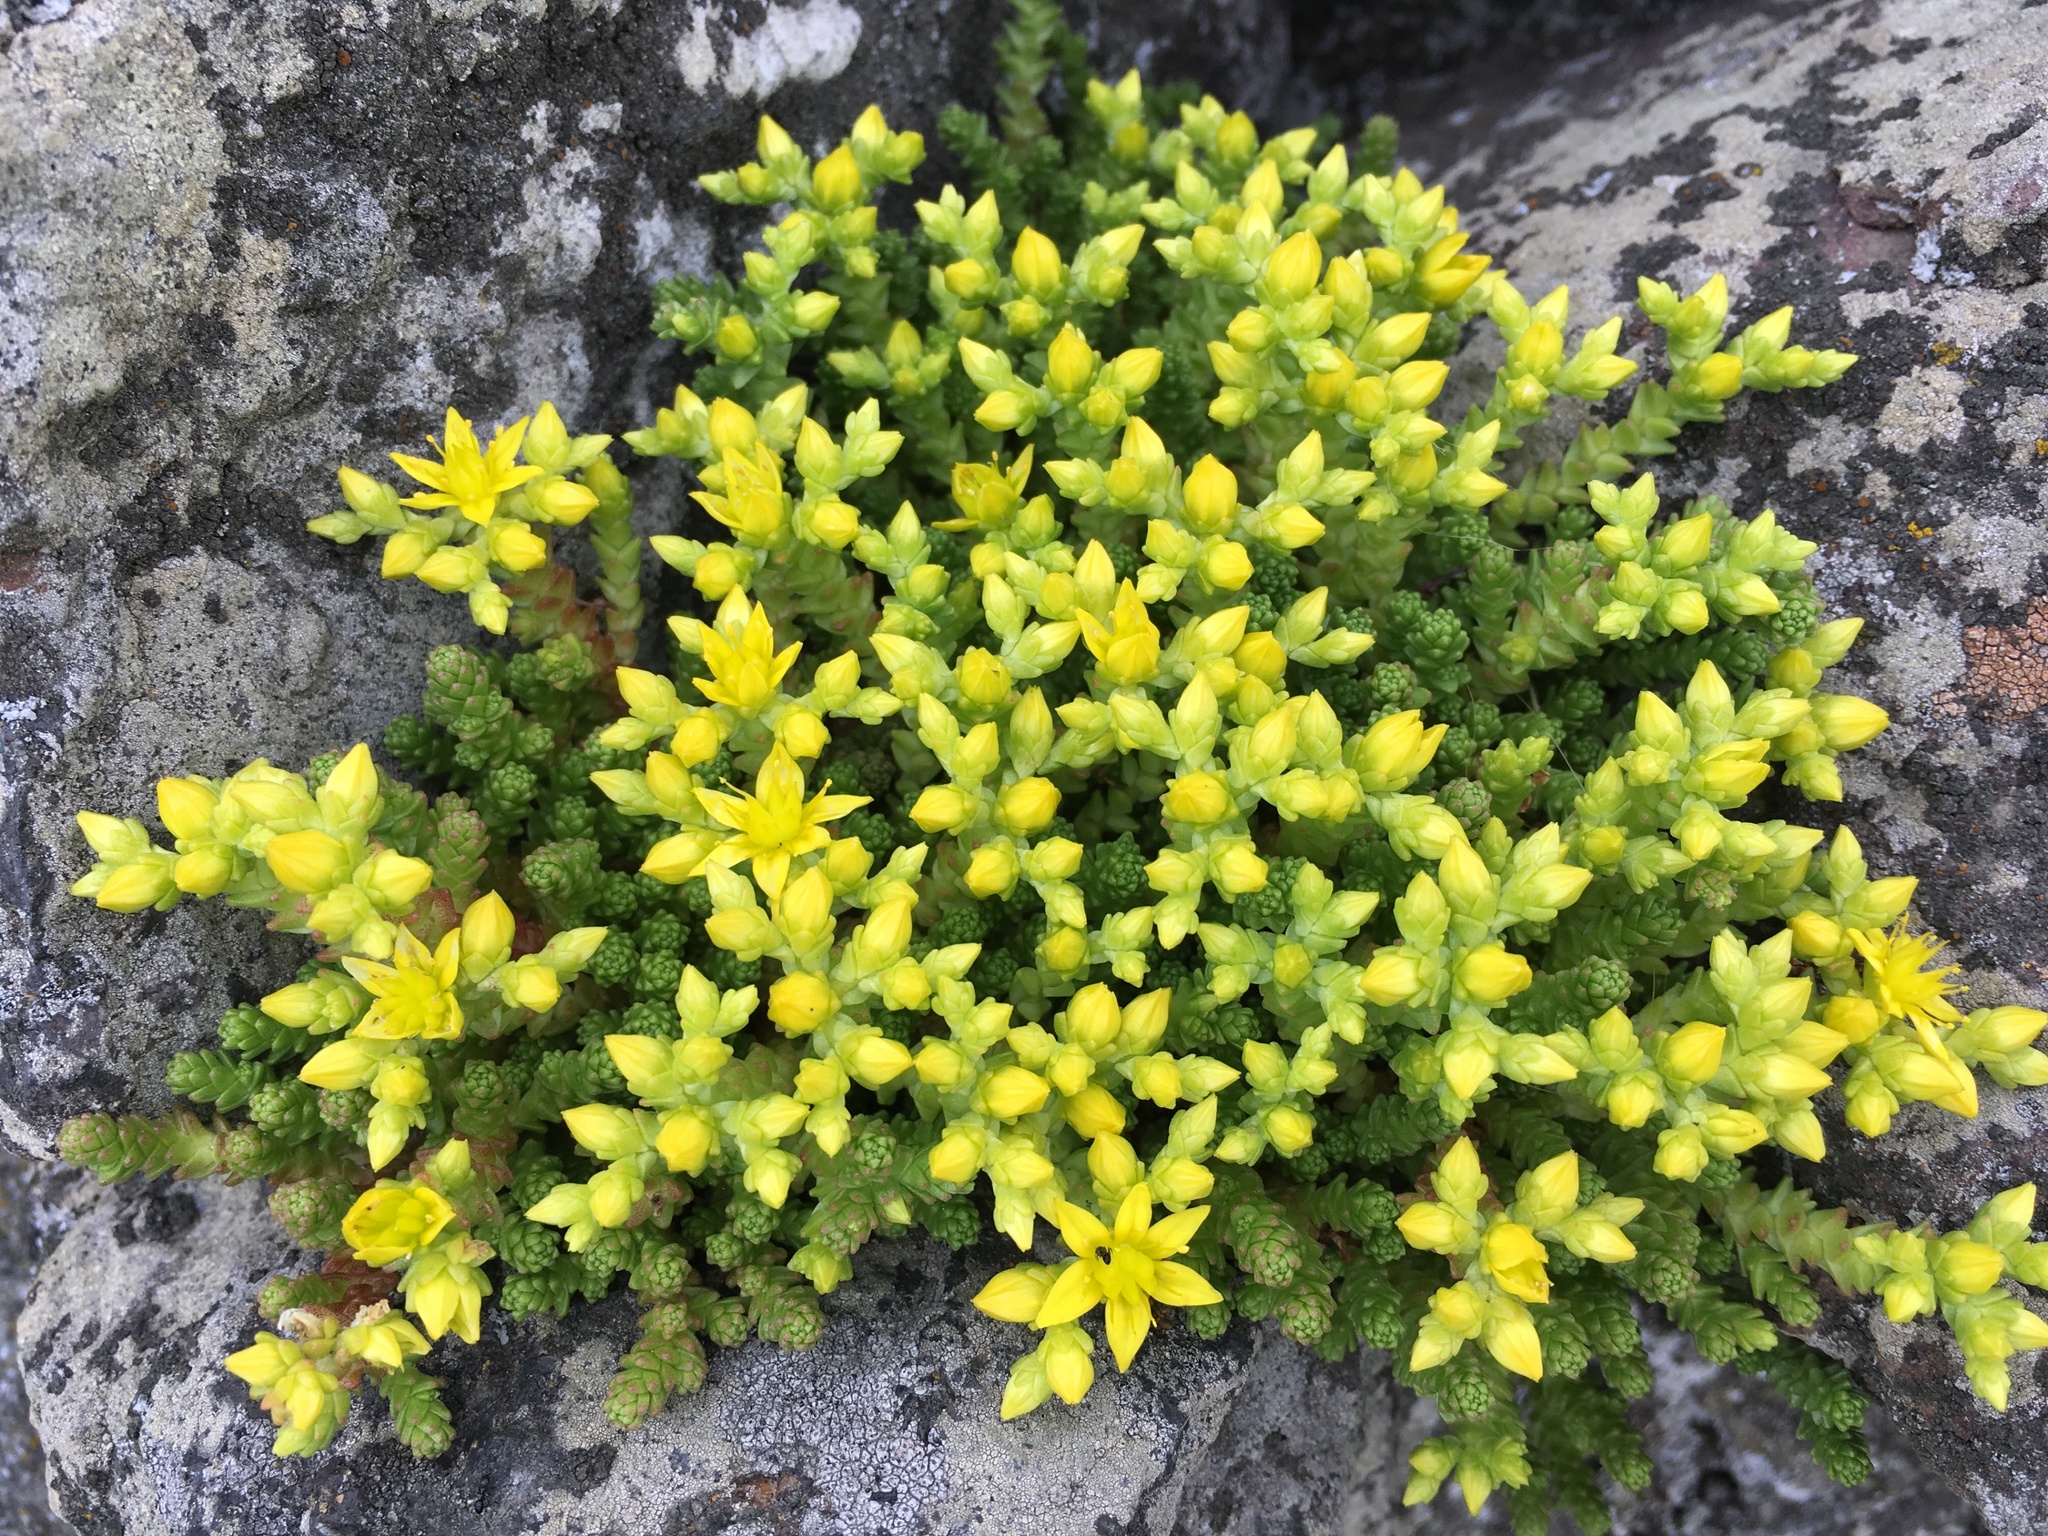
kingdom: Plantae
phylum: Tracheophyta
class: Magnoliopsida
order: Saxifragales
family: Crassulaceae
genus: Sedum
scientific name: Sedum acre
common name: Biting stonecrop
